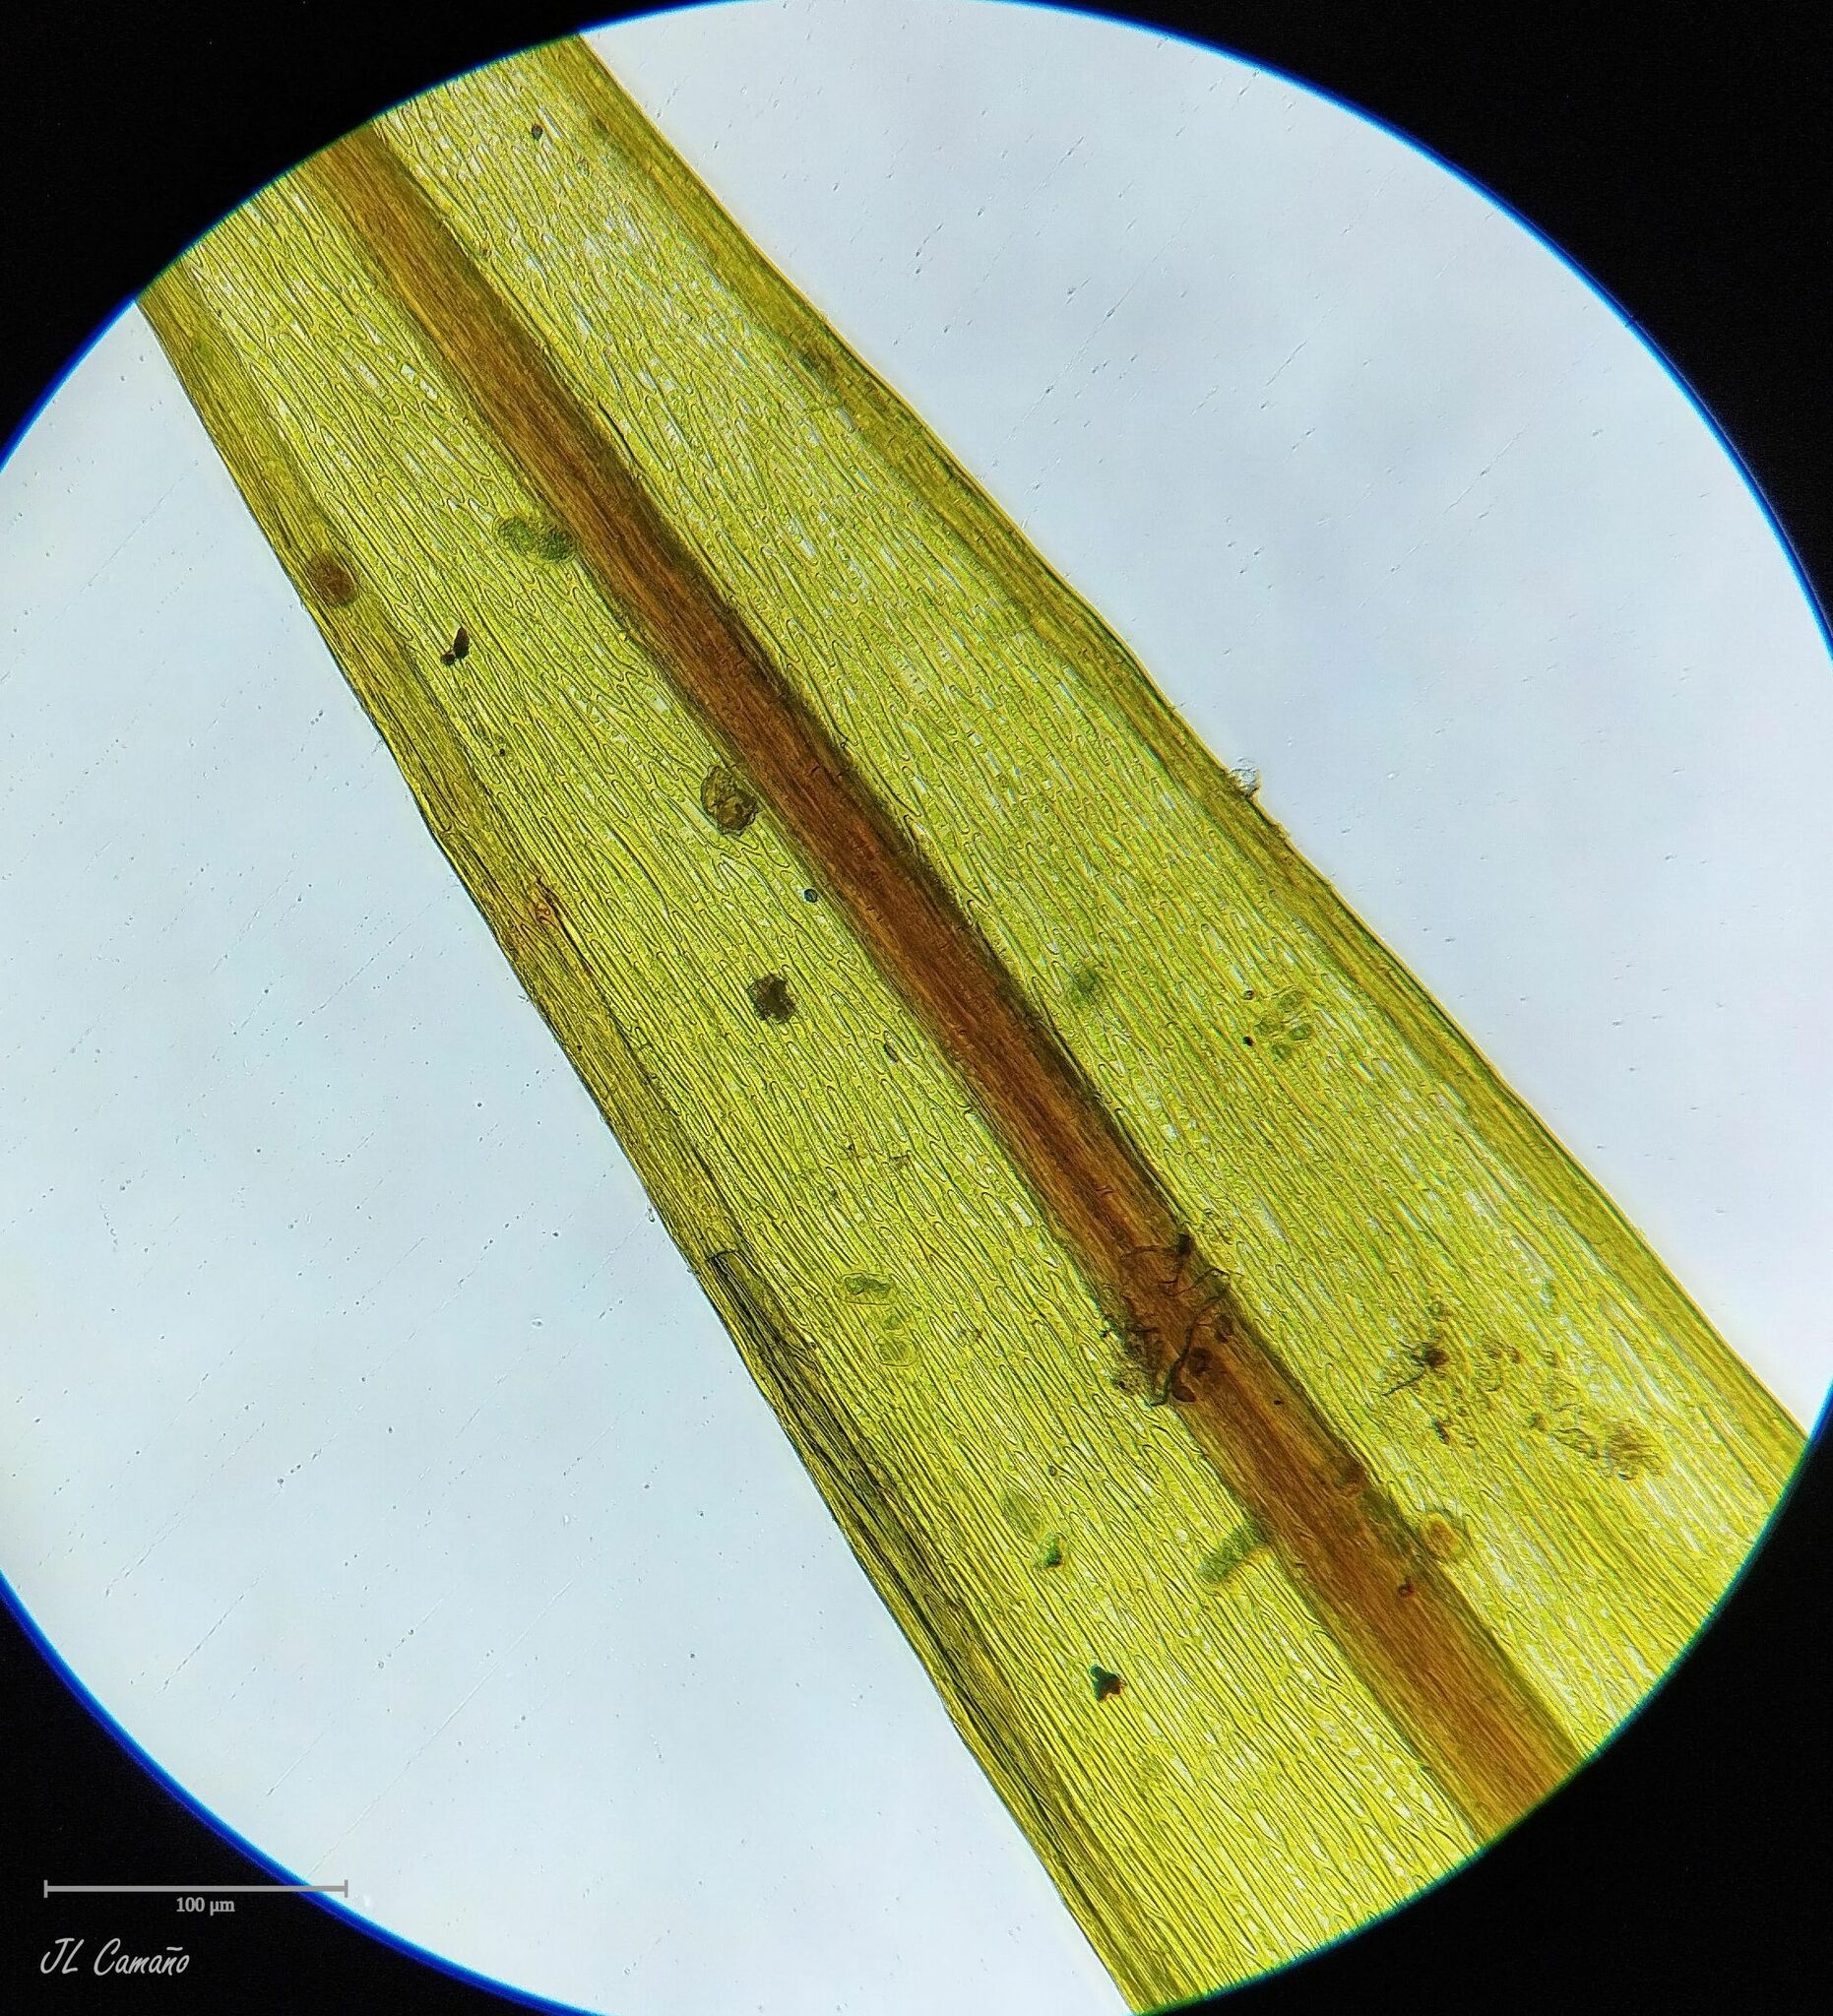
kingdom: Plantae
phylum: Bryophyta
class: Bryopsida
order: Bryales
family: Bryaceae
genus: Imbribryum
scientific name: Imbribryum alpinum
